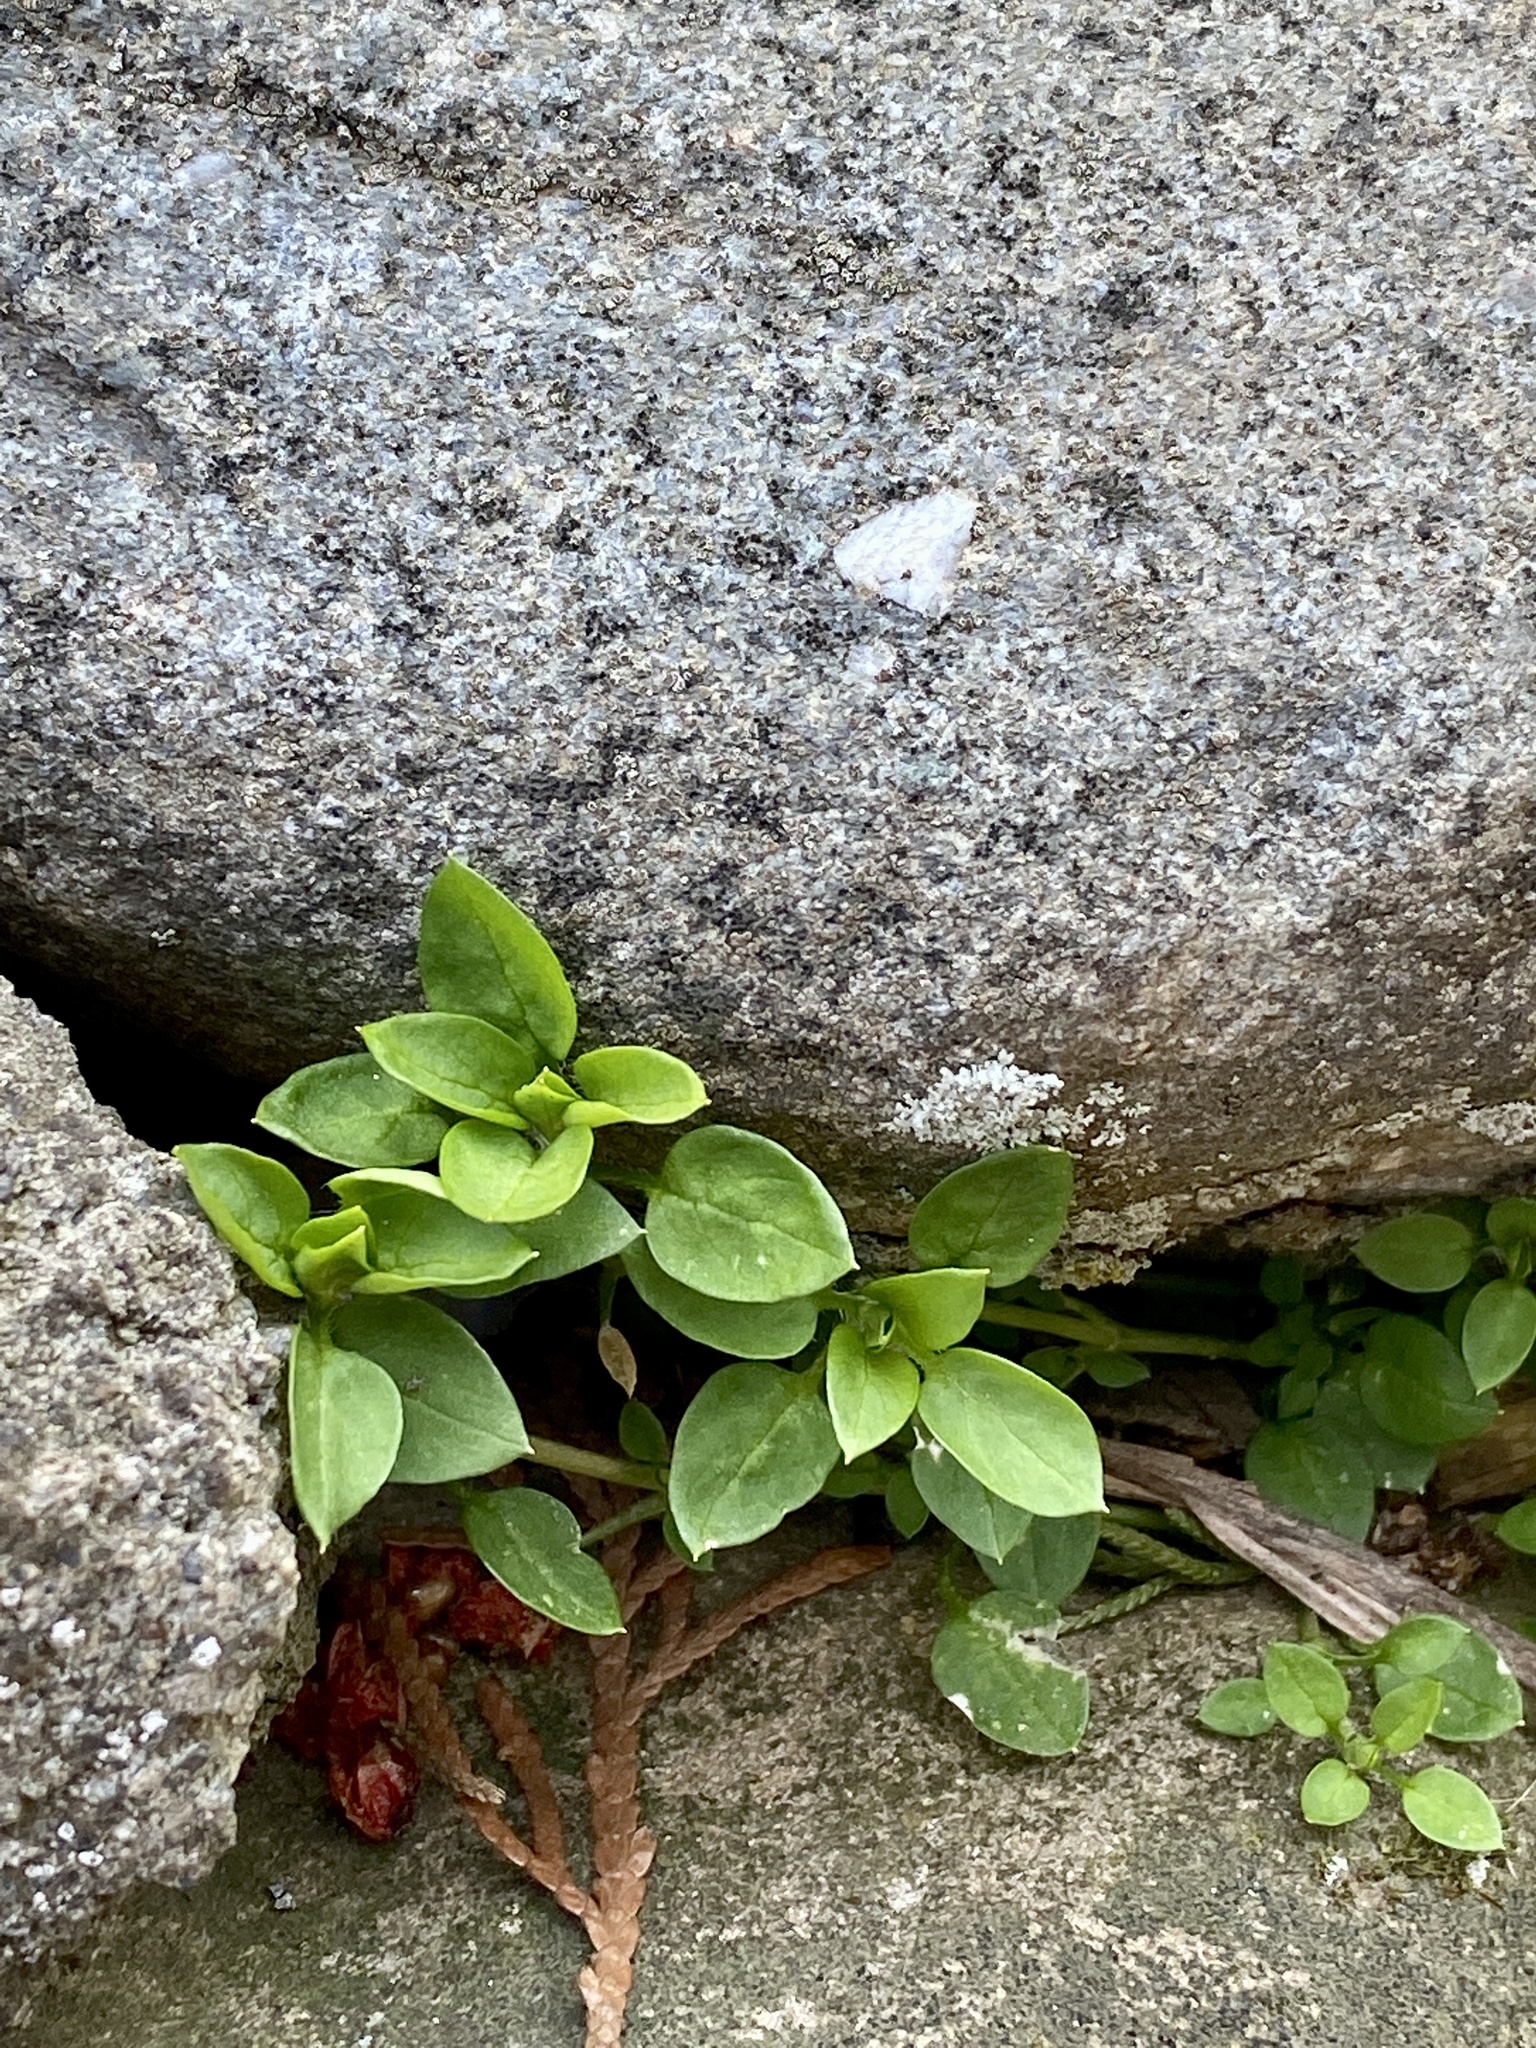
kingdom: Plantae
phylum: Tracheophyta
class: Magnoliopsida
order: Caryophyllales
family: Caryophyllaceae
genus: Stellaria
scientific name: Stellaria media
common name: Common chickweed
